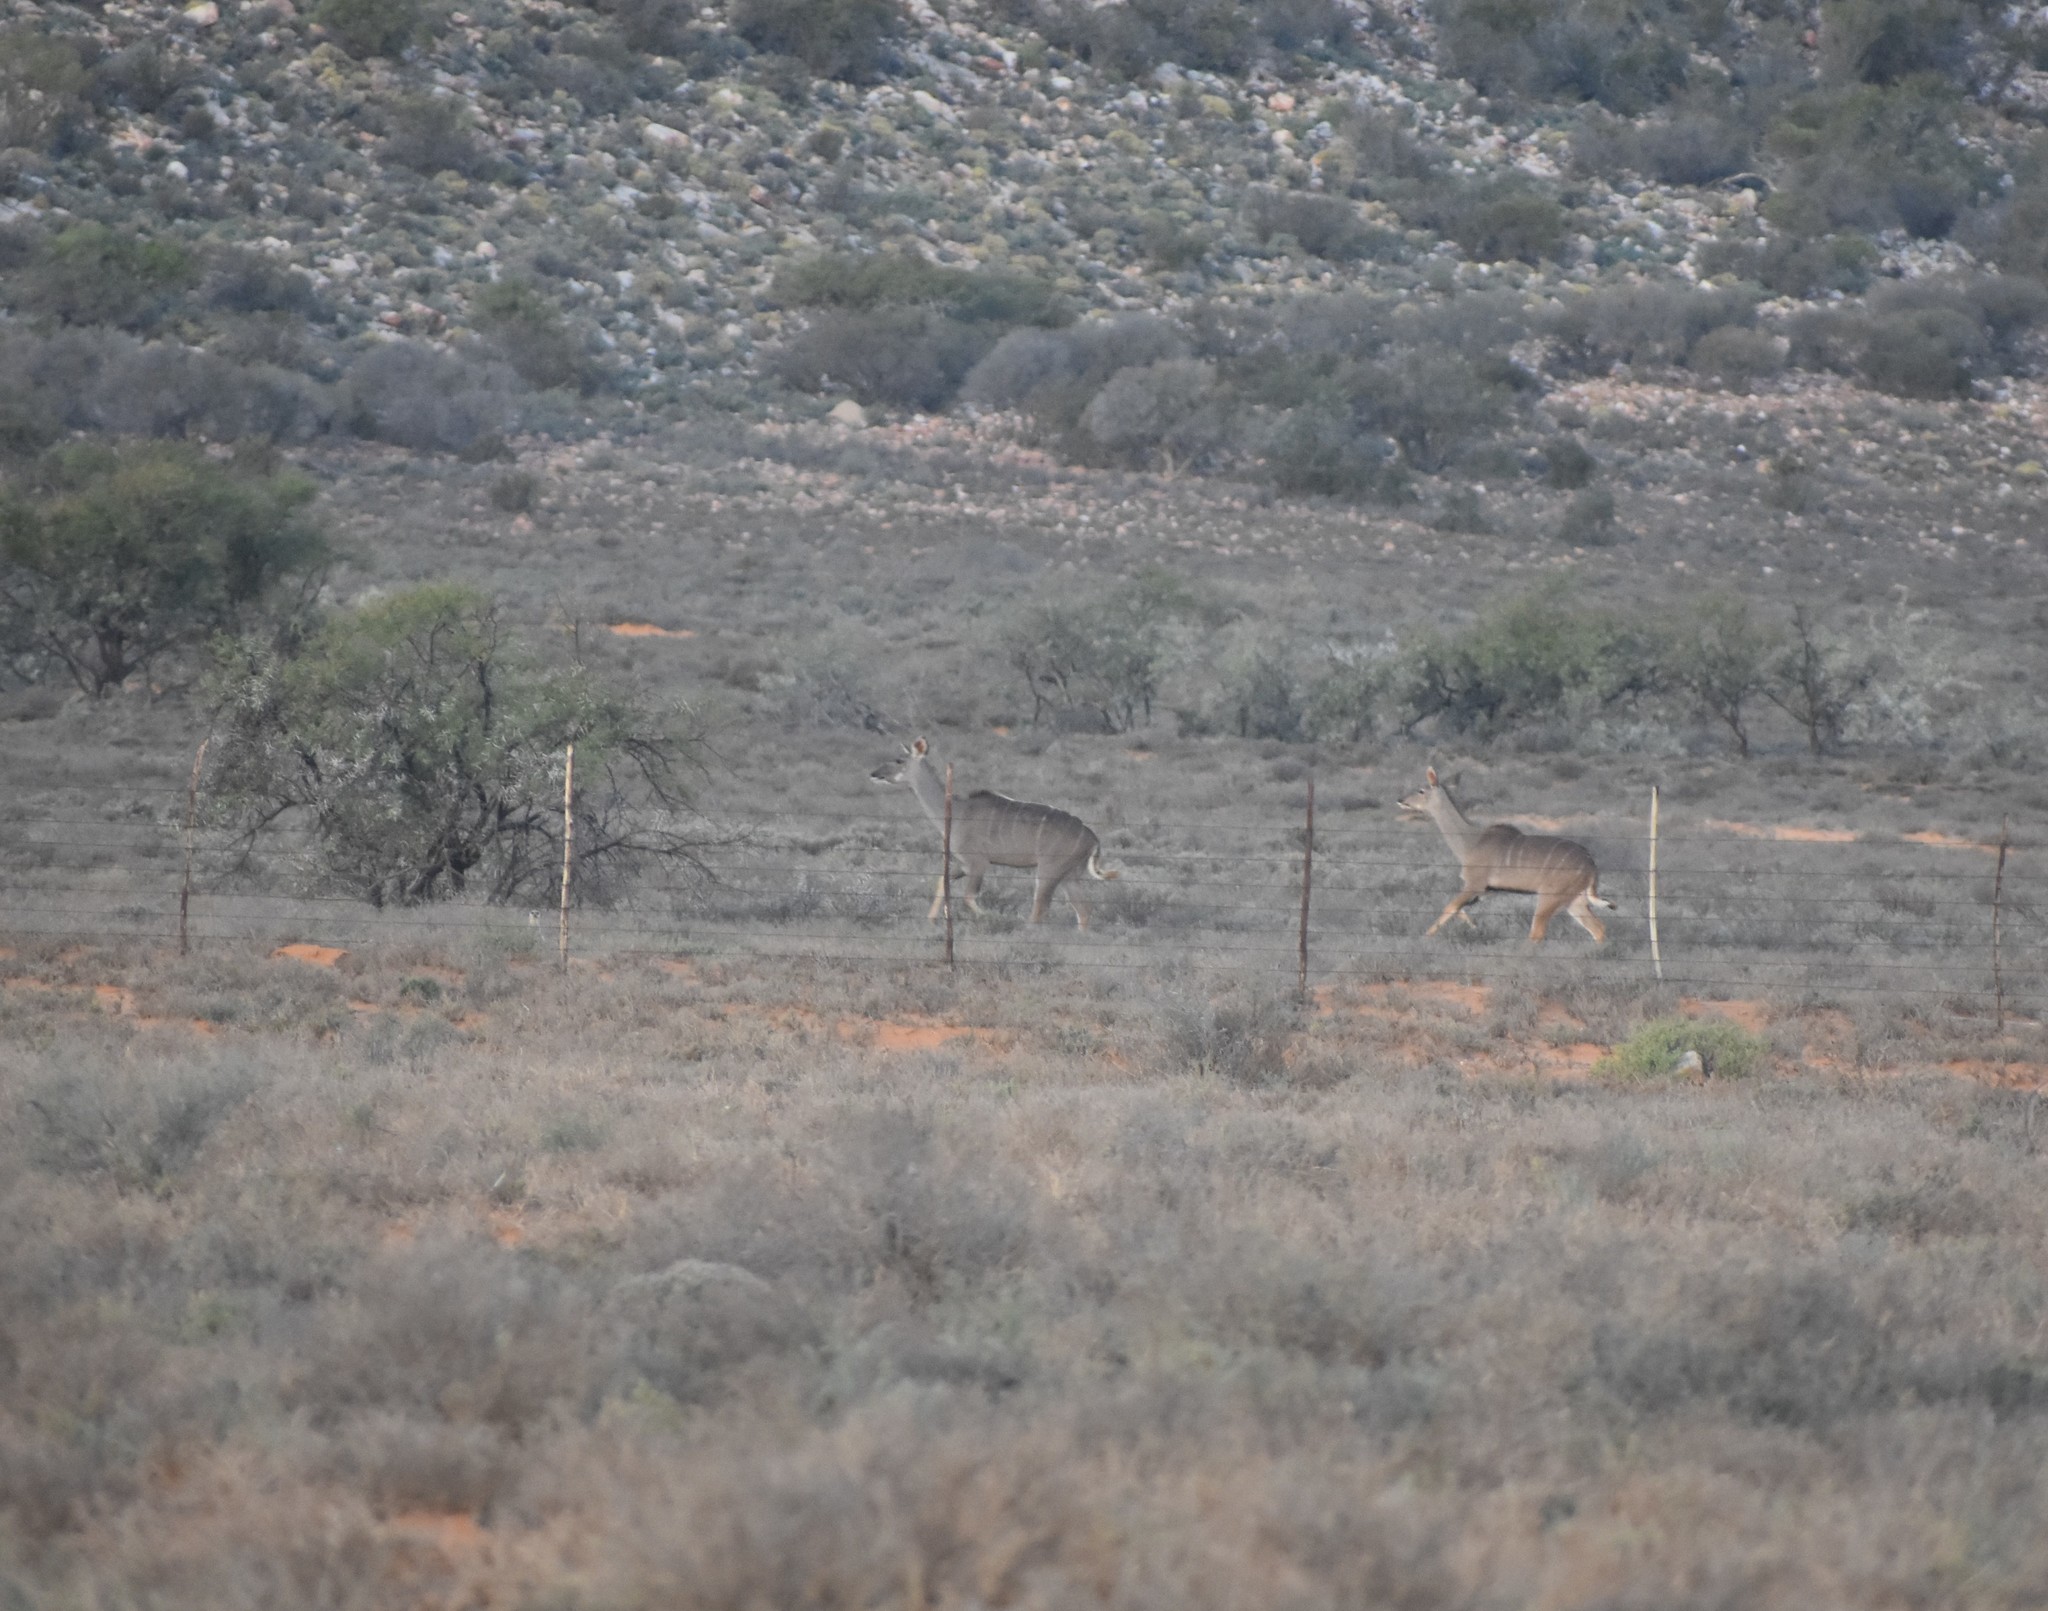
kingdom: Animalia
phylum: Chordata
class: Mammalia
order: Artiodactyla
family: Bovidae
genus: Tragelaphus
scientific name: Tragelaphus strepsiceros
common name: Greater kudu
